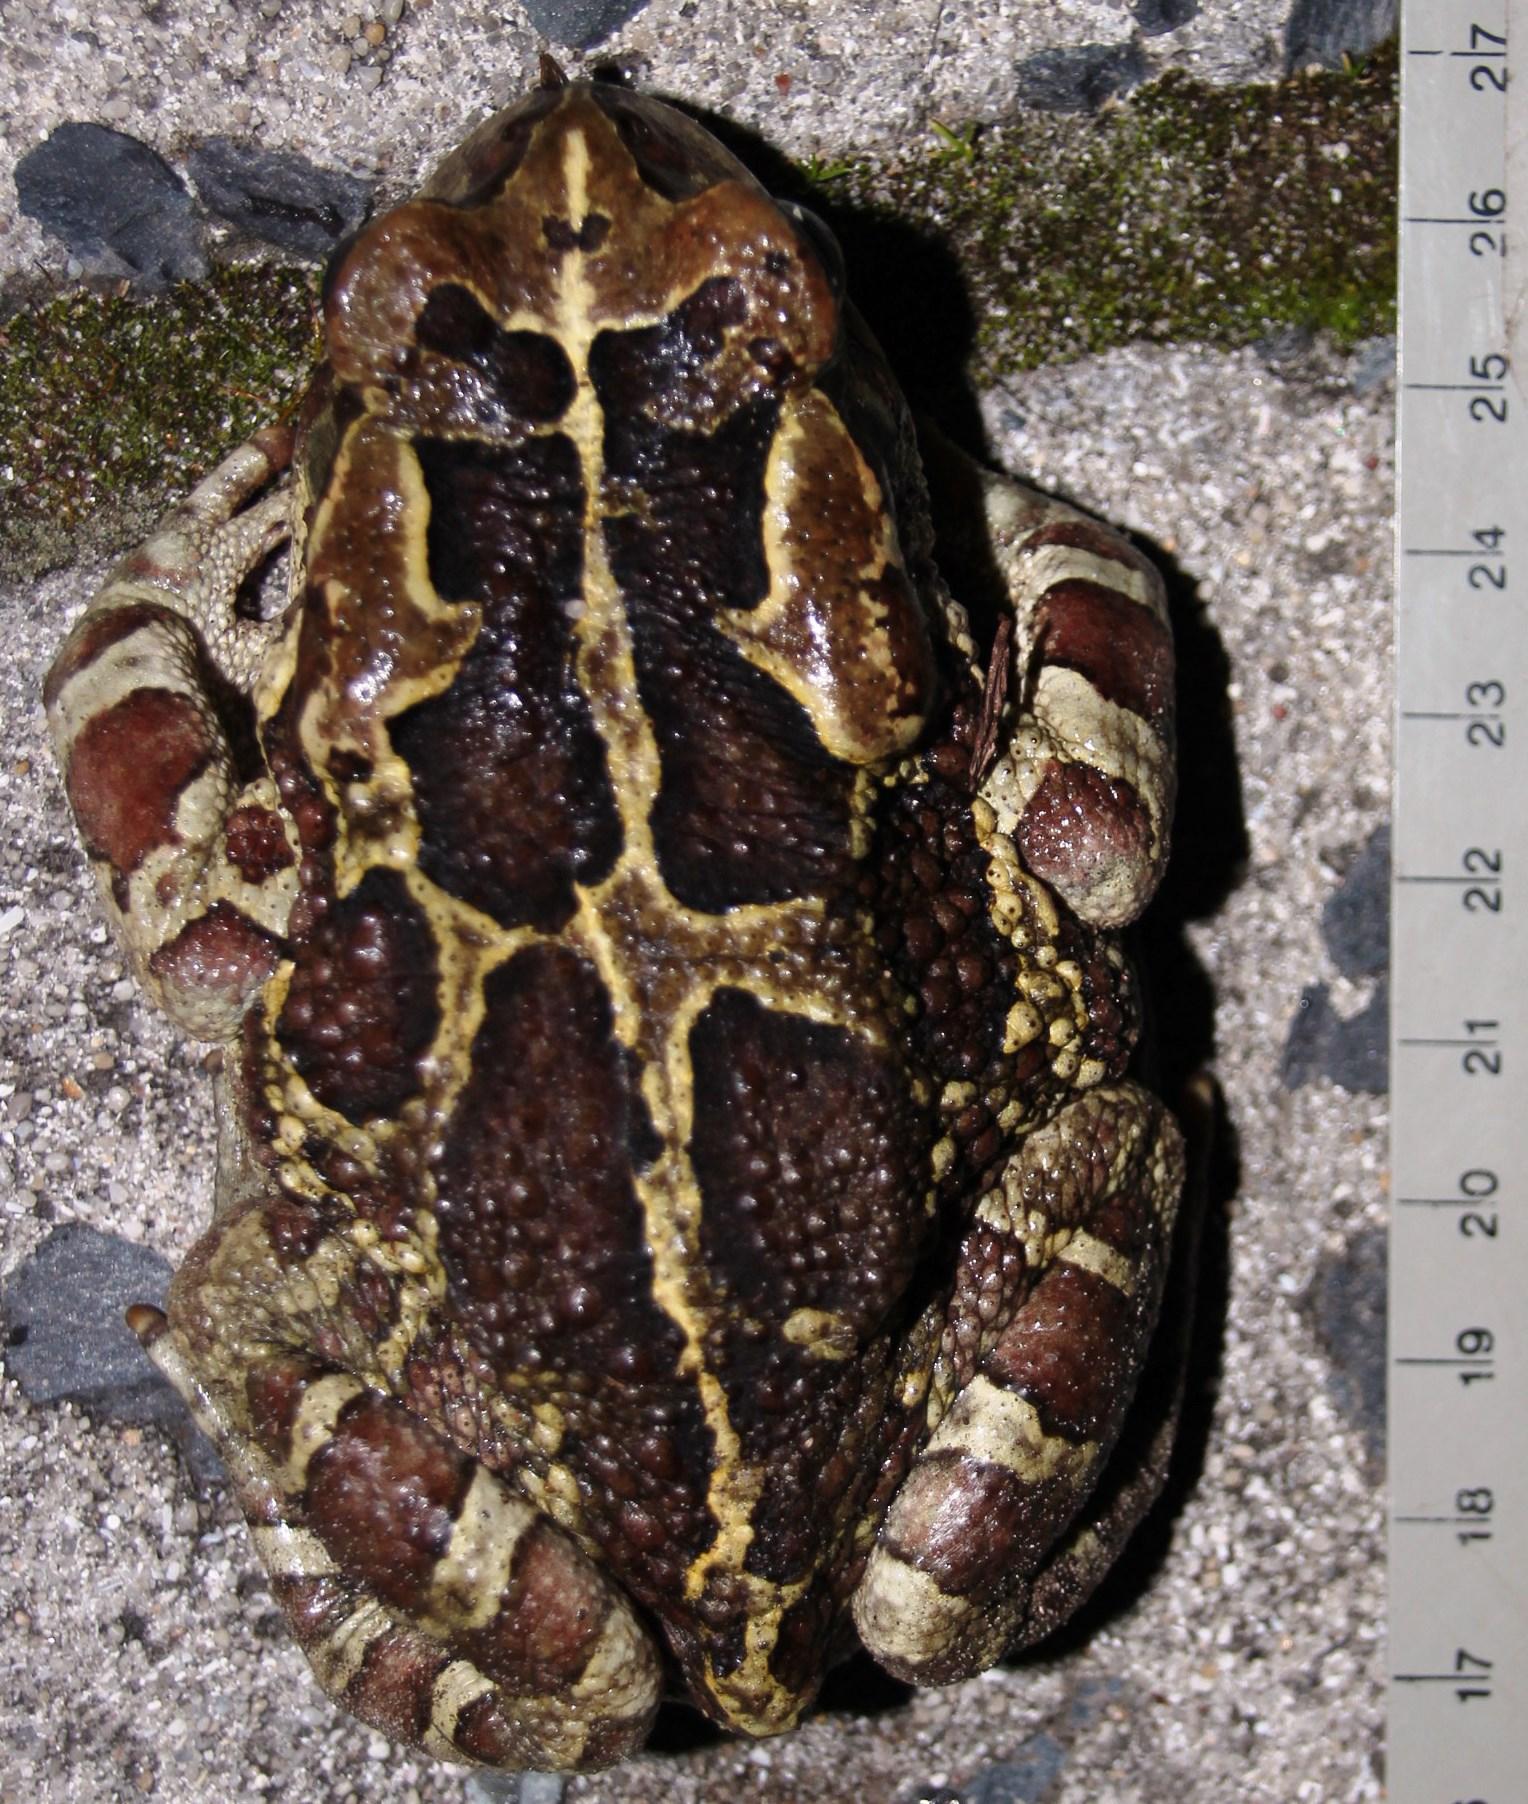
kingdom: Animalia
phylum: Chordata
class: Amphibia
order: Anura
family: Bufonidae
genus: Sclerophrys
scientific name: Sclerophrys pantherina
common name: Panther toad
